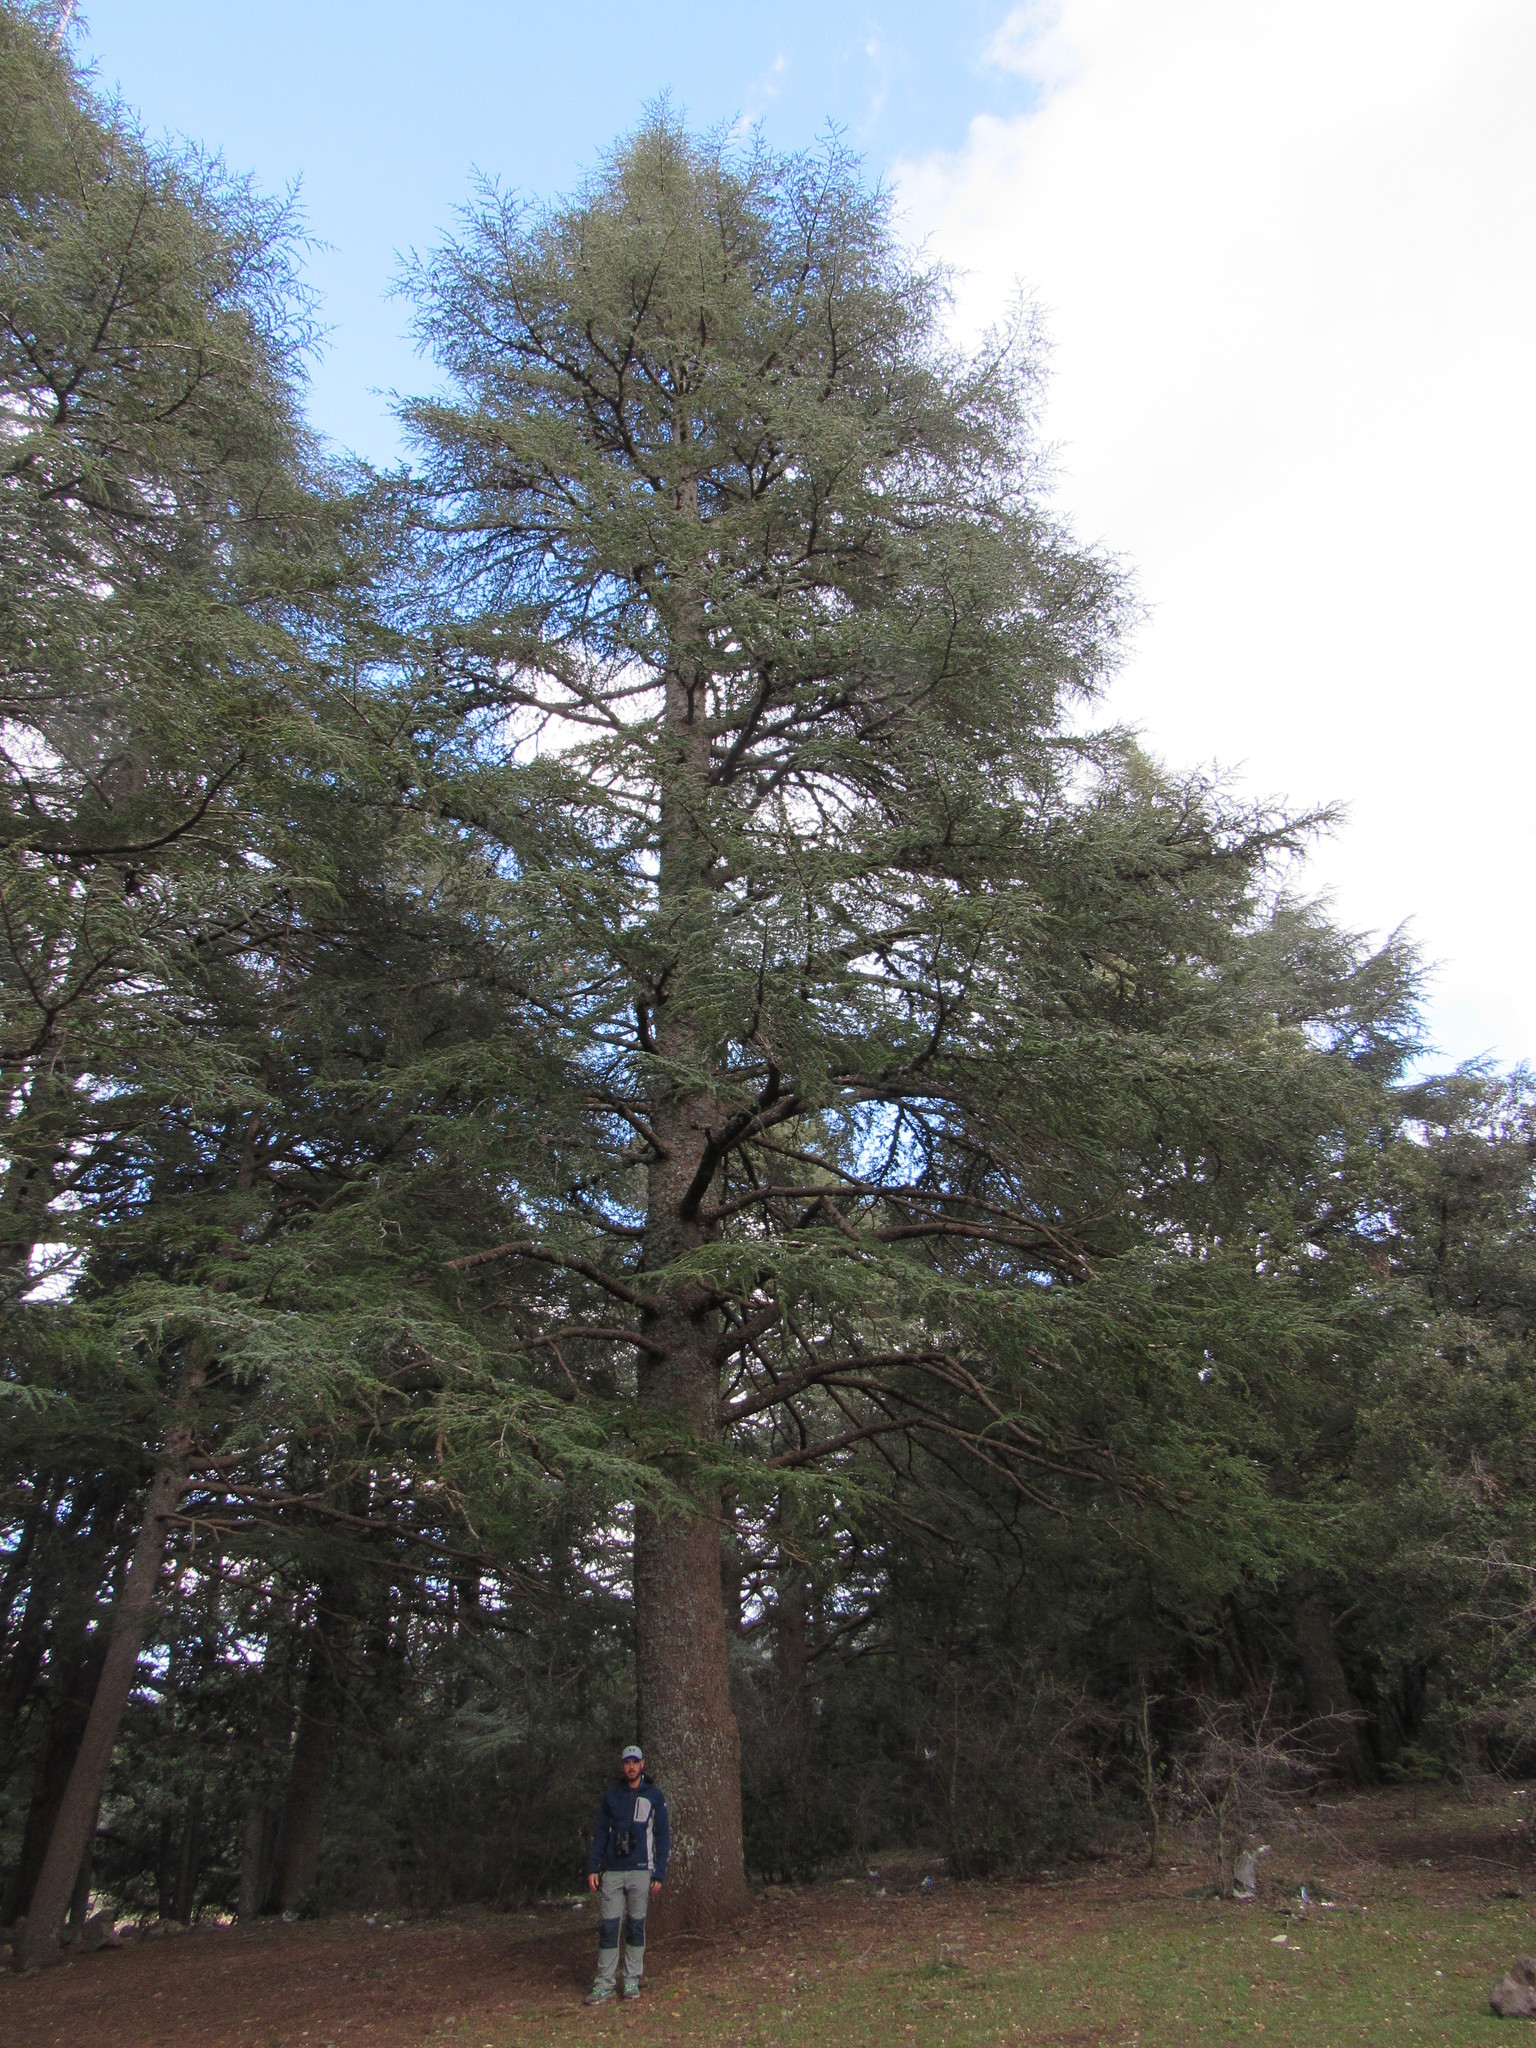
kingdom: Plantae
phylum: Tracheophyta
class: Pinopsida
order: Pinales
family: Pinaceae
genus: Cedrus
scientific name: Cedrus atlantica
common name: Atlas cedar
